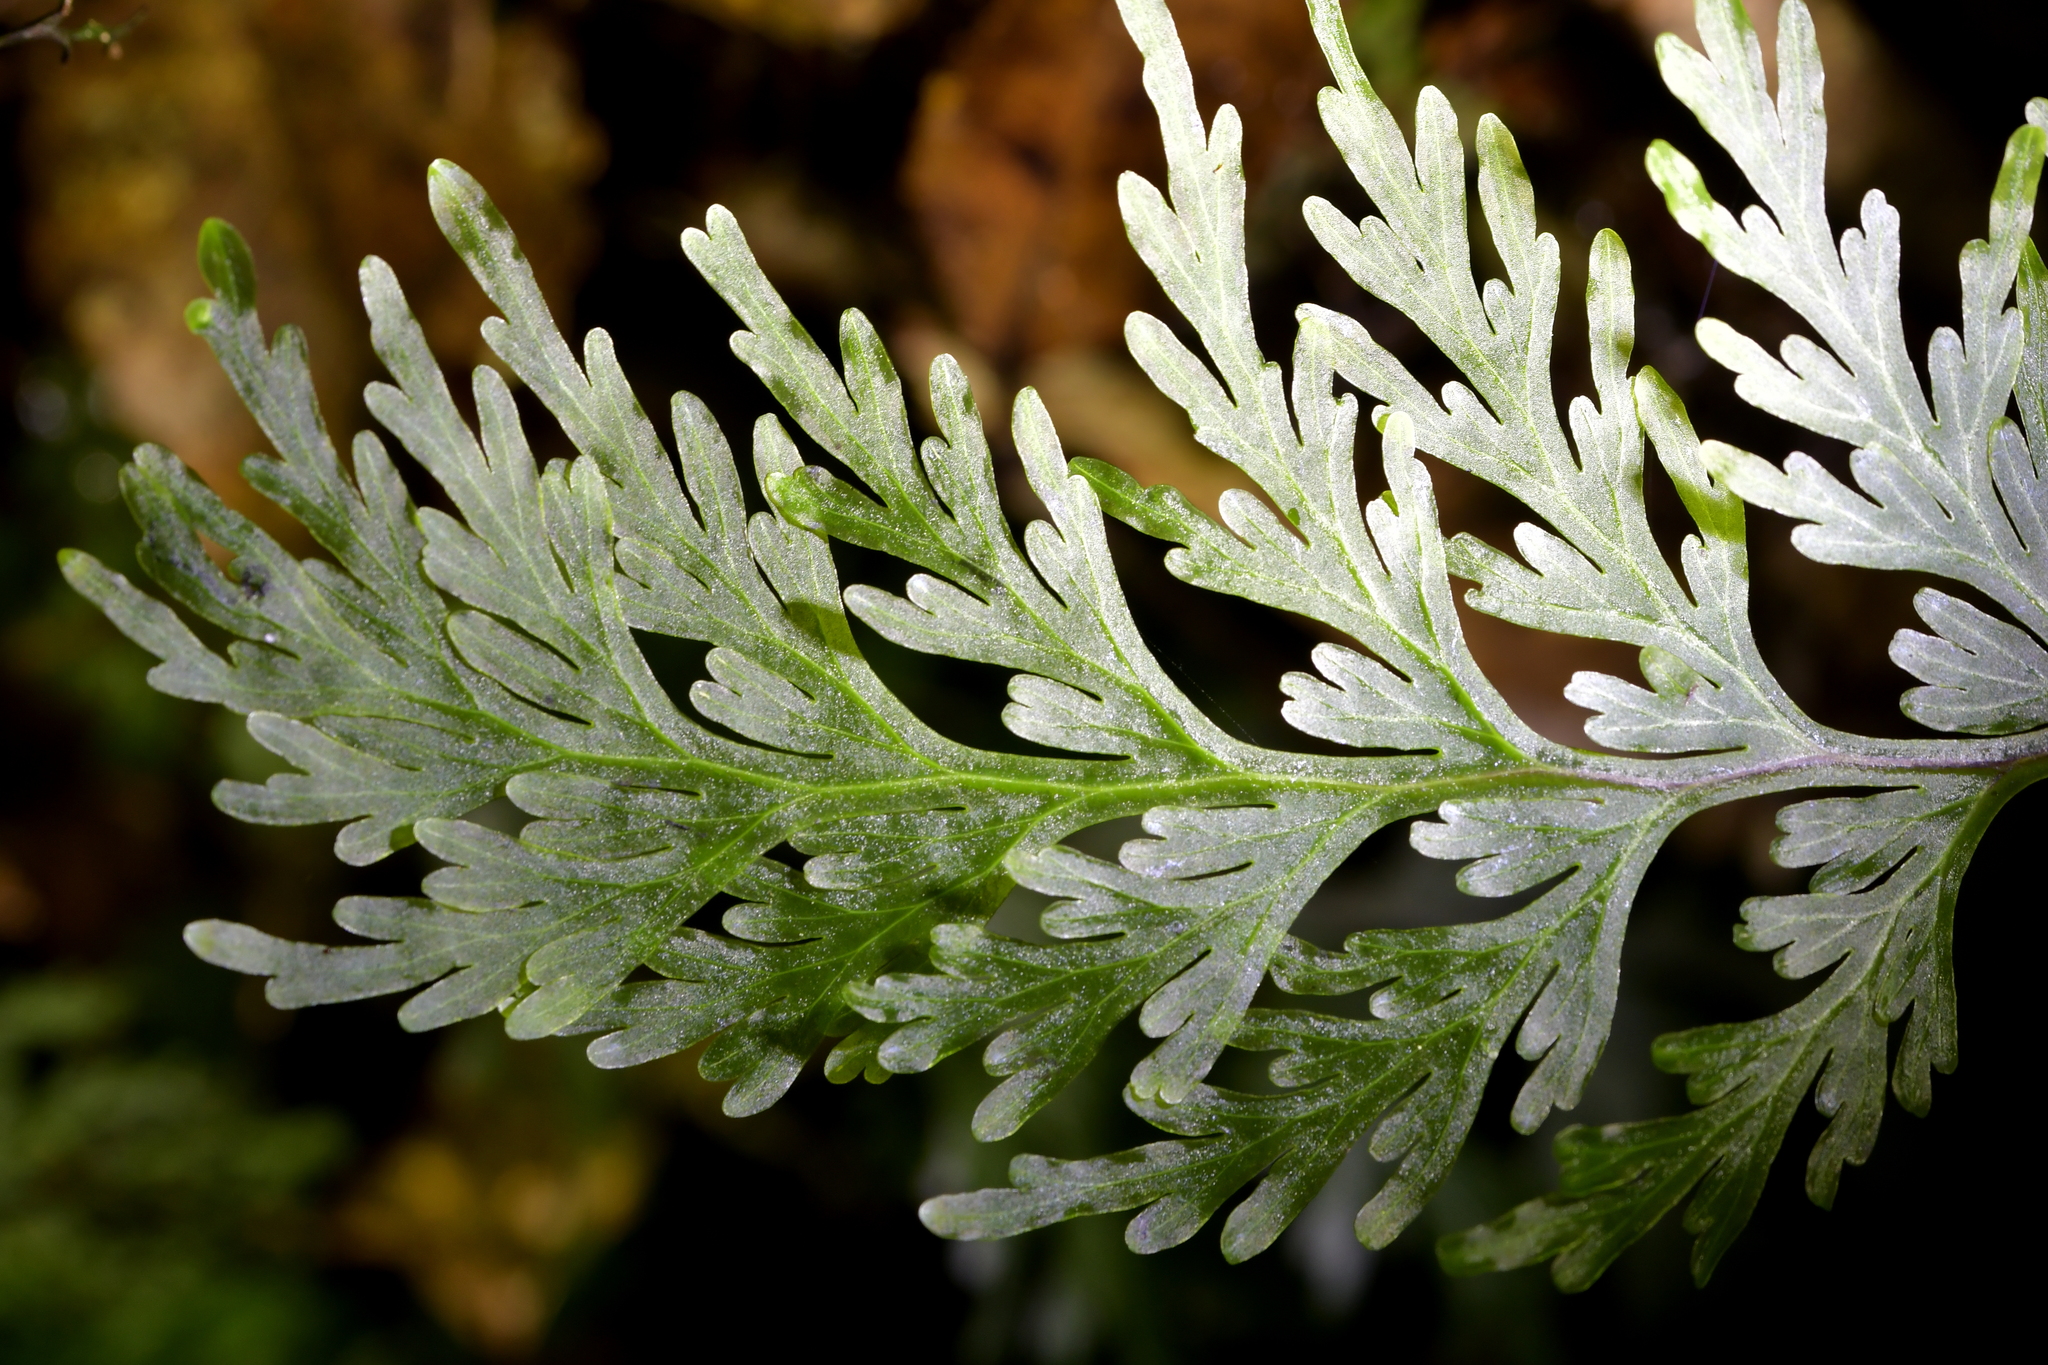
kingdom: Plantae
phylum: Tracheophyta
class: Polypodiopsida
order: Hymenophyllales
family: Hymenophyllaceae
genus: Hymenophyllum
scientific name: Hymenophyllum dilatatum
